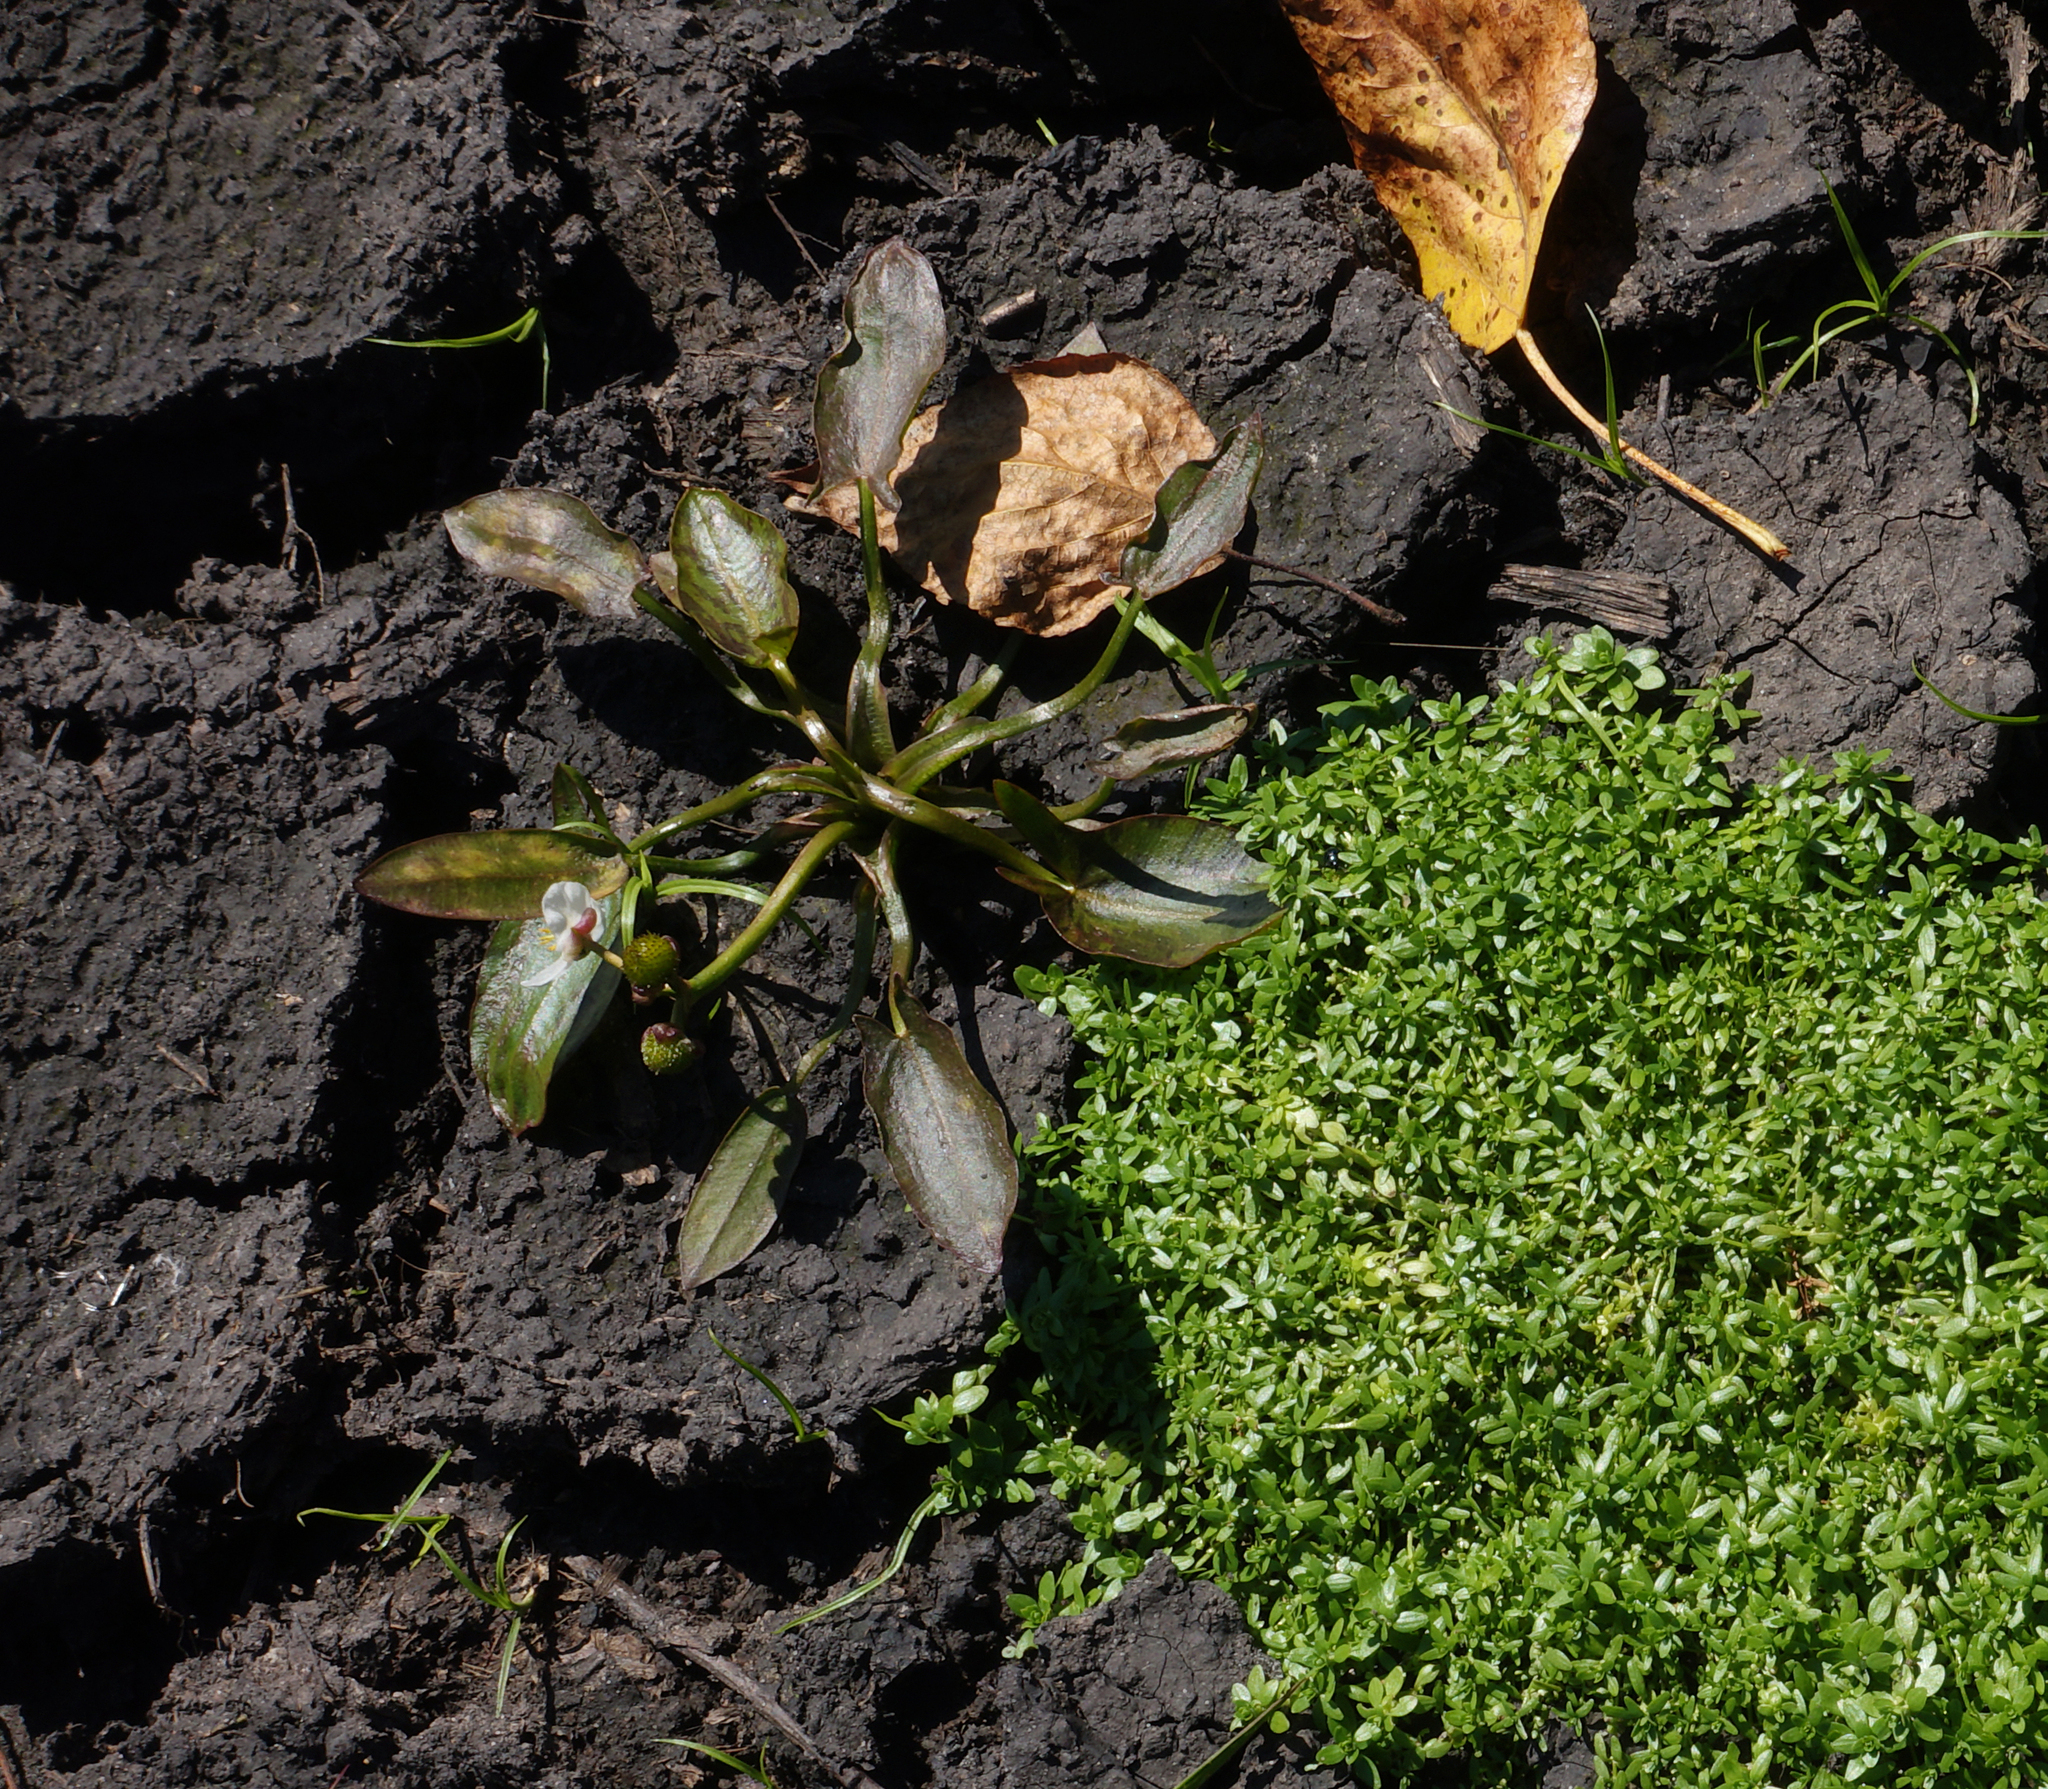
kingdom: Plantae
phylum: Tracheophyta
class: Liliopsida
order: Alismatales
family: Alismataceae
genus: Sagittaria
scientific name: Sagittaria natans
